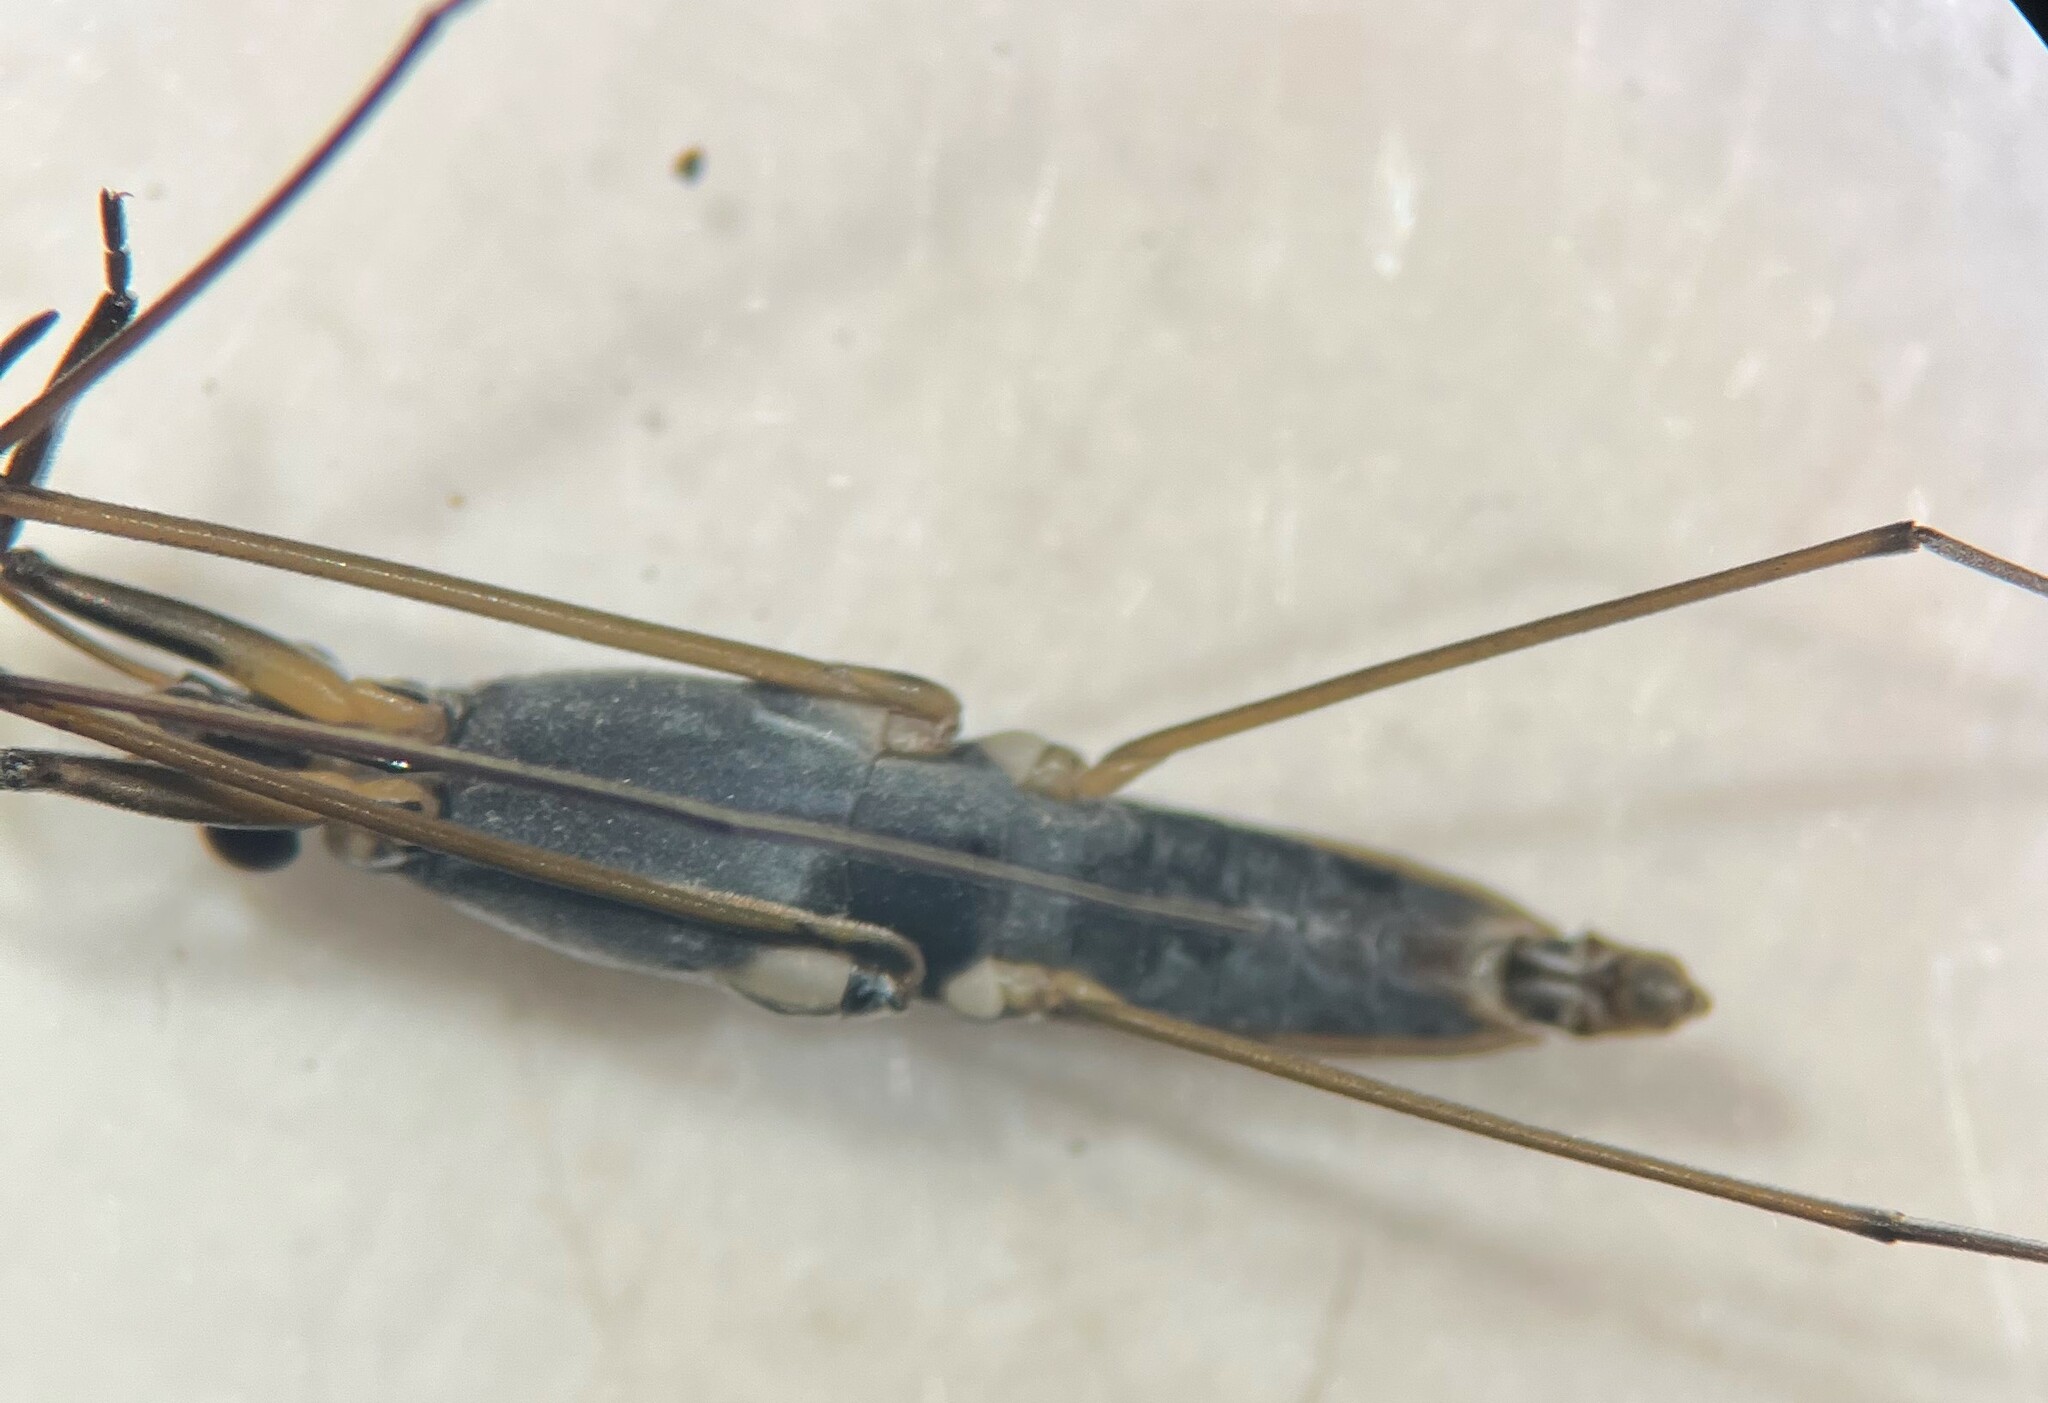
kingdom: Animalia
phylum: Arthropoda
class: Insecta
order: Hemiptera
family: Gerridae
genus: Gerris
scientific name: Gerris comatus
